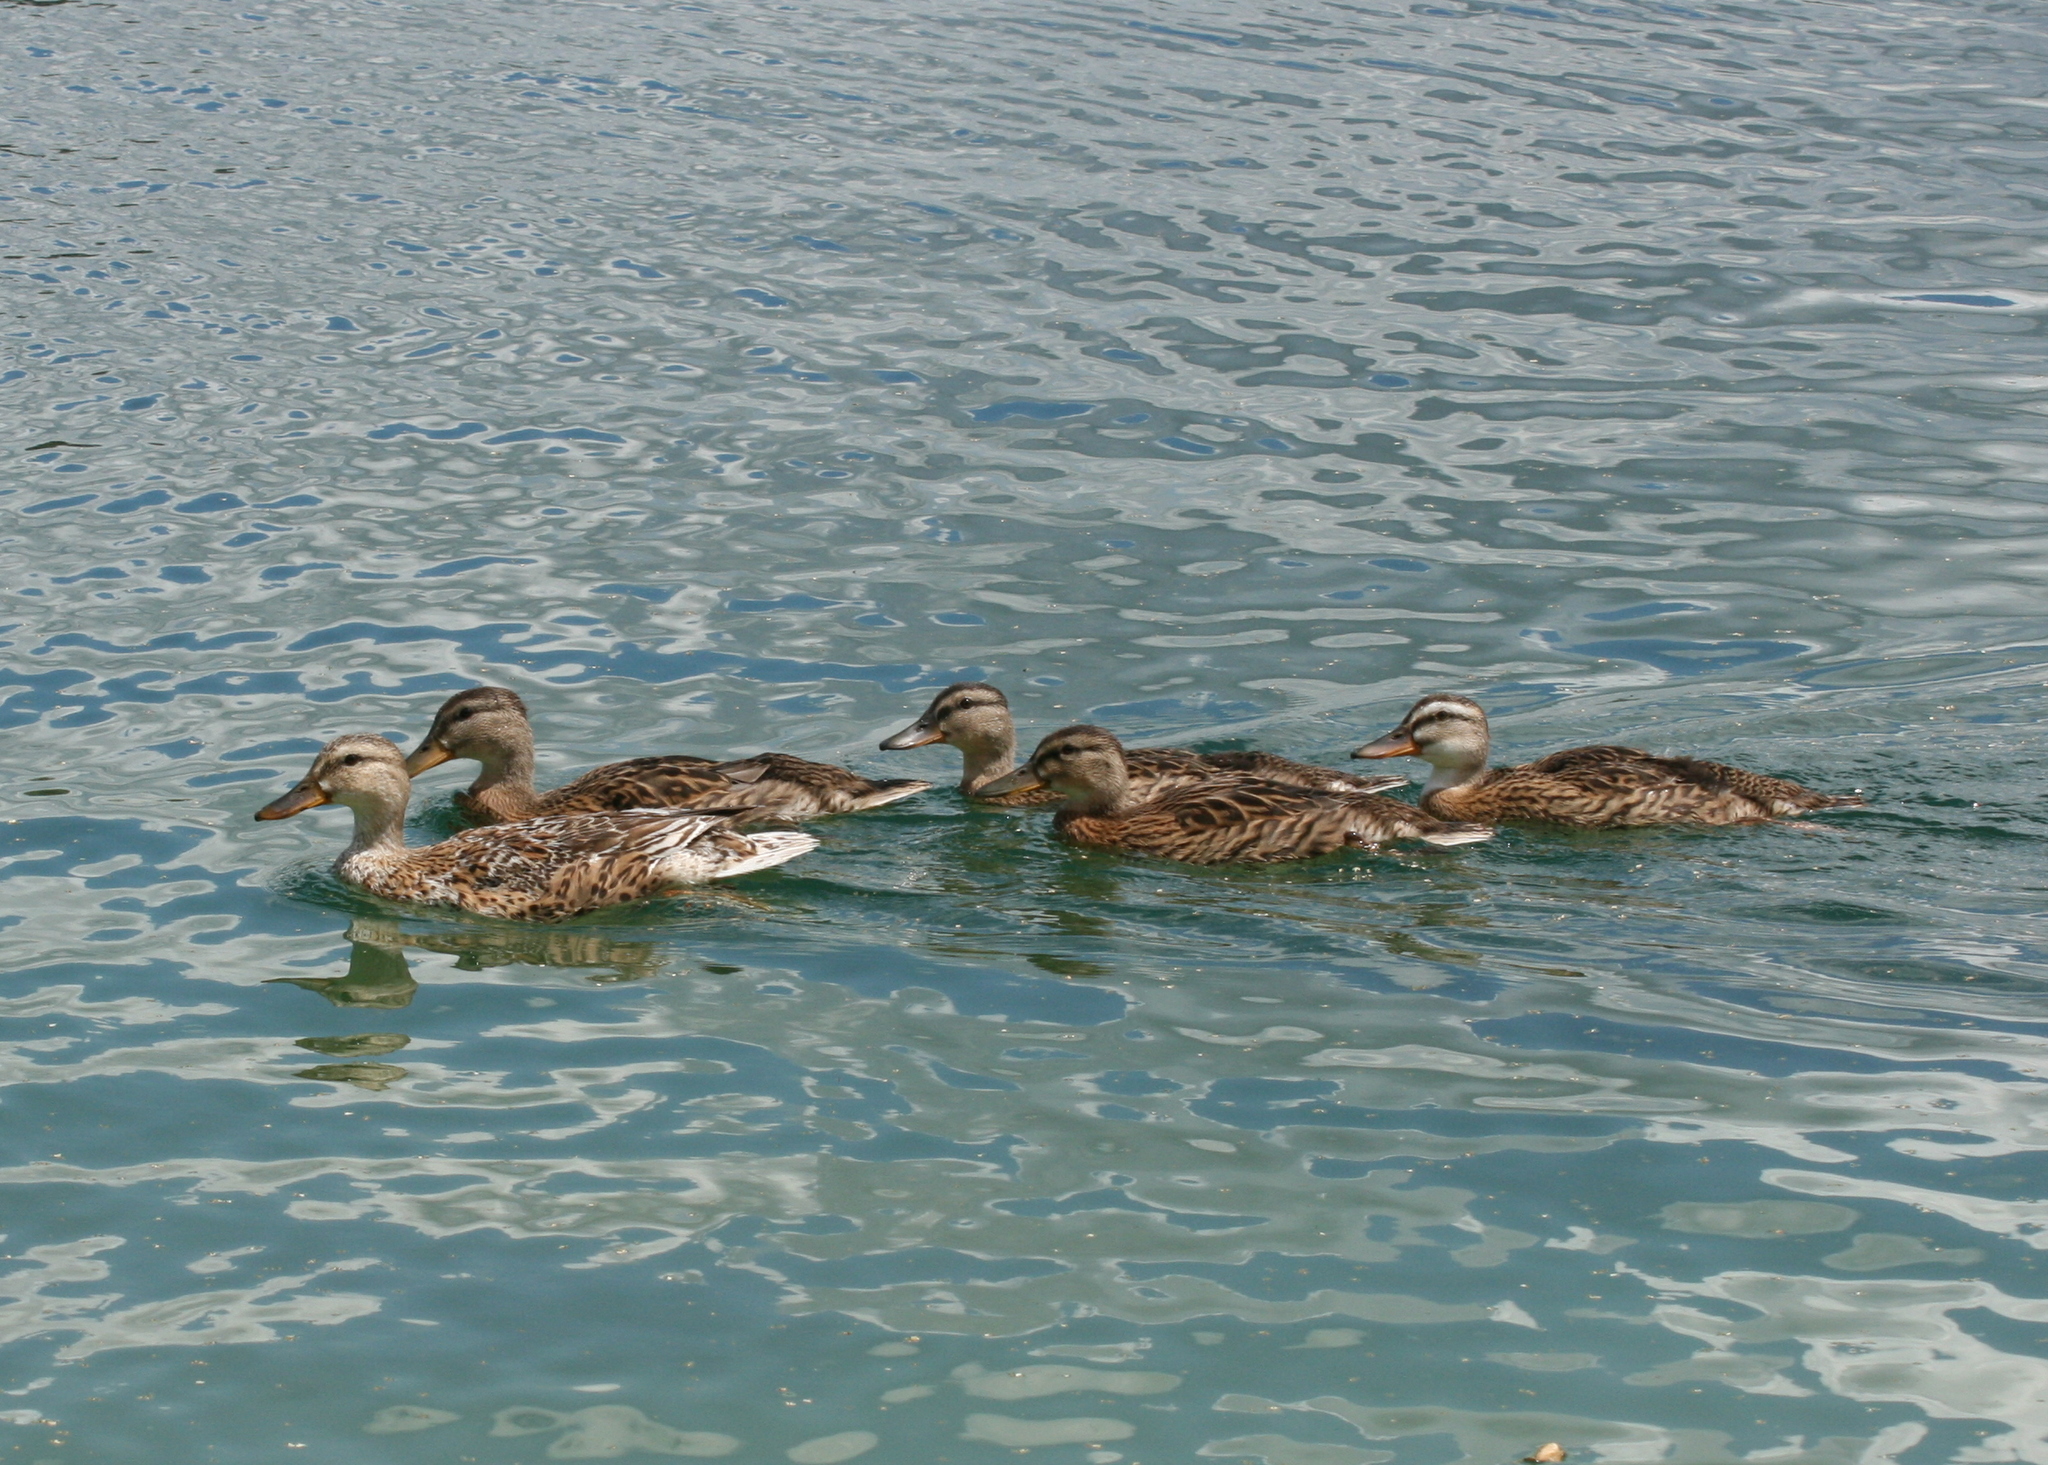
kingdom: Animalia
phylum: Chordata
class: Aves
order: Anseriformes
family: Anatidae
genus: Anas
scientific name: Anas platyrhynchos
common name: Mallard
